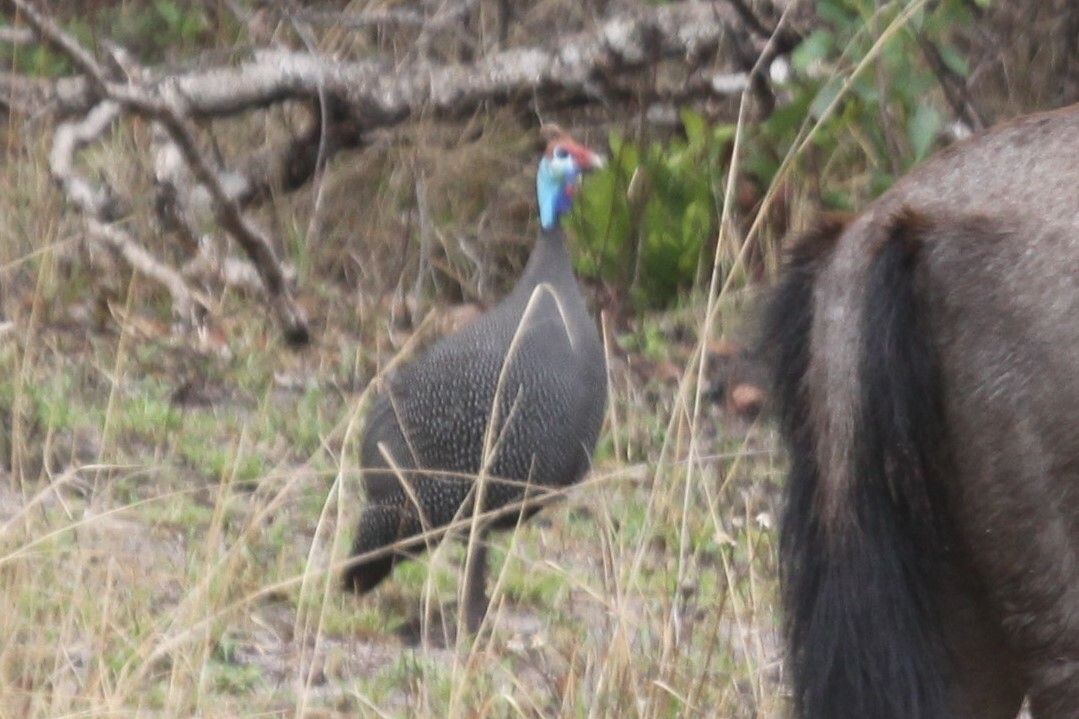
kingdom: Animalia
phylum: Chordata
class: Aves
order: Galliformes
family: Numididae
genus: Numida
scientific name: Numida meleagris
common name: Helmeted guineafowl
